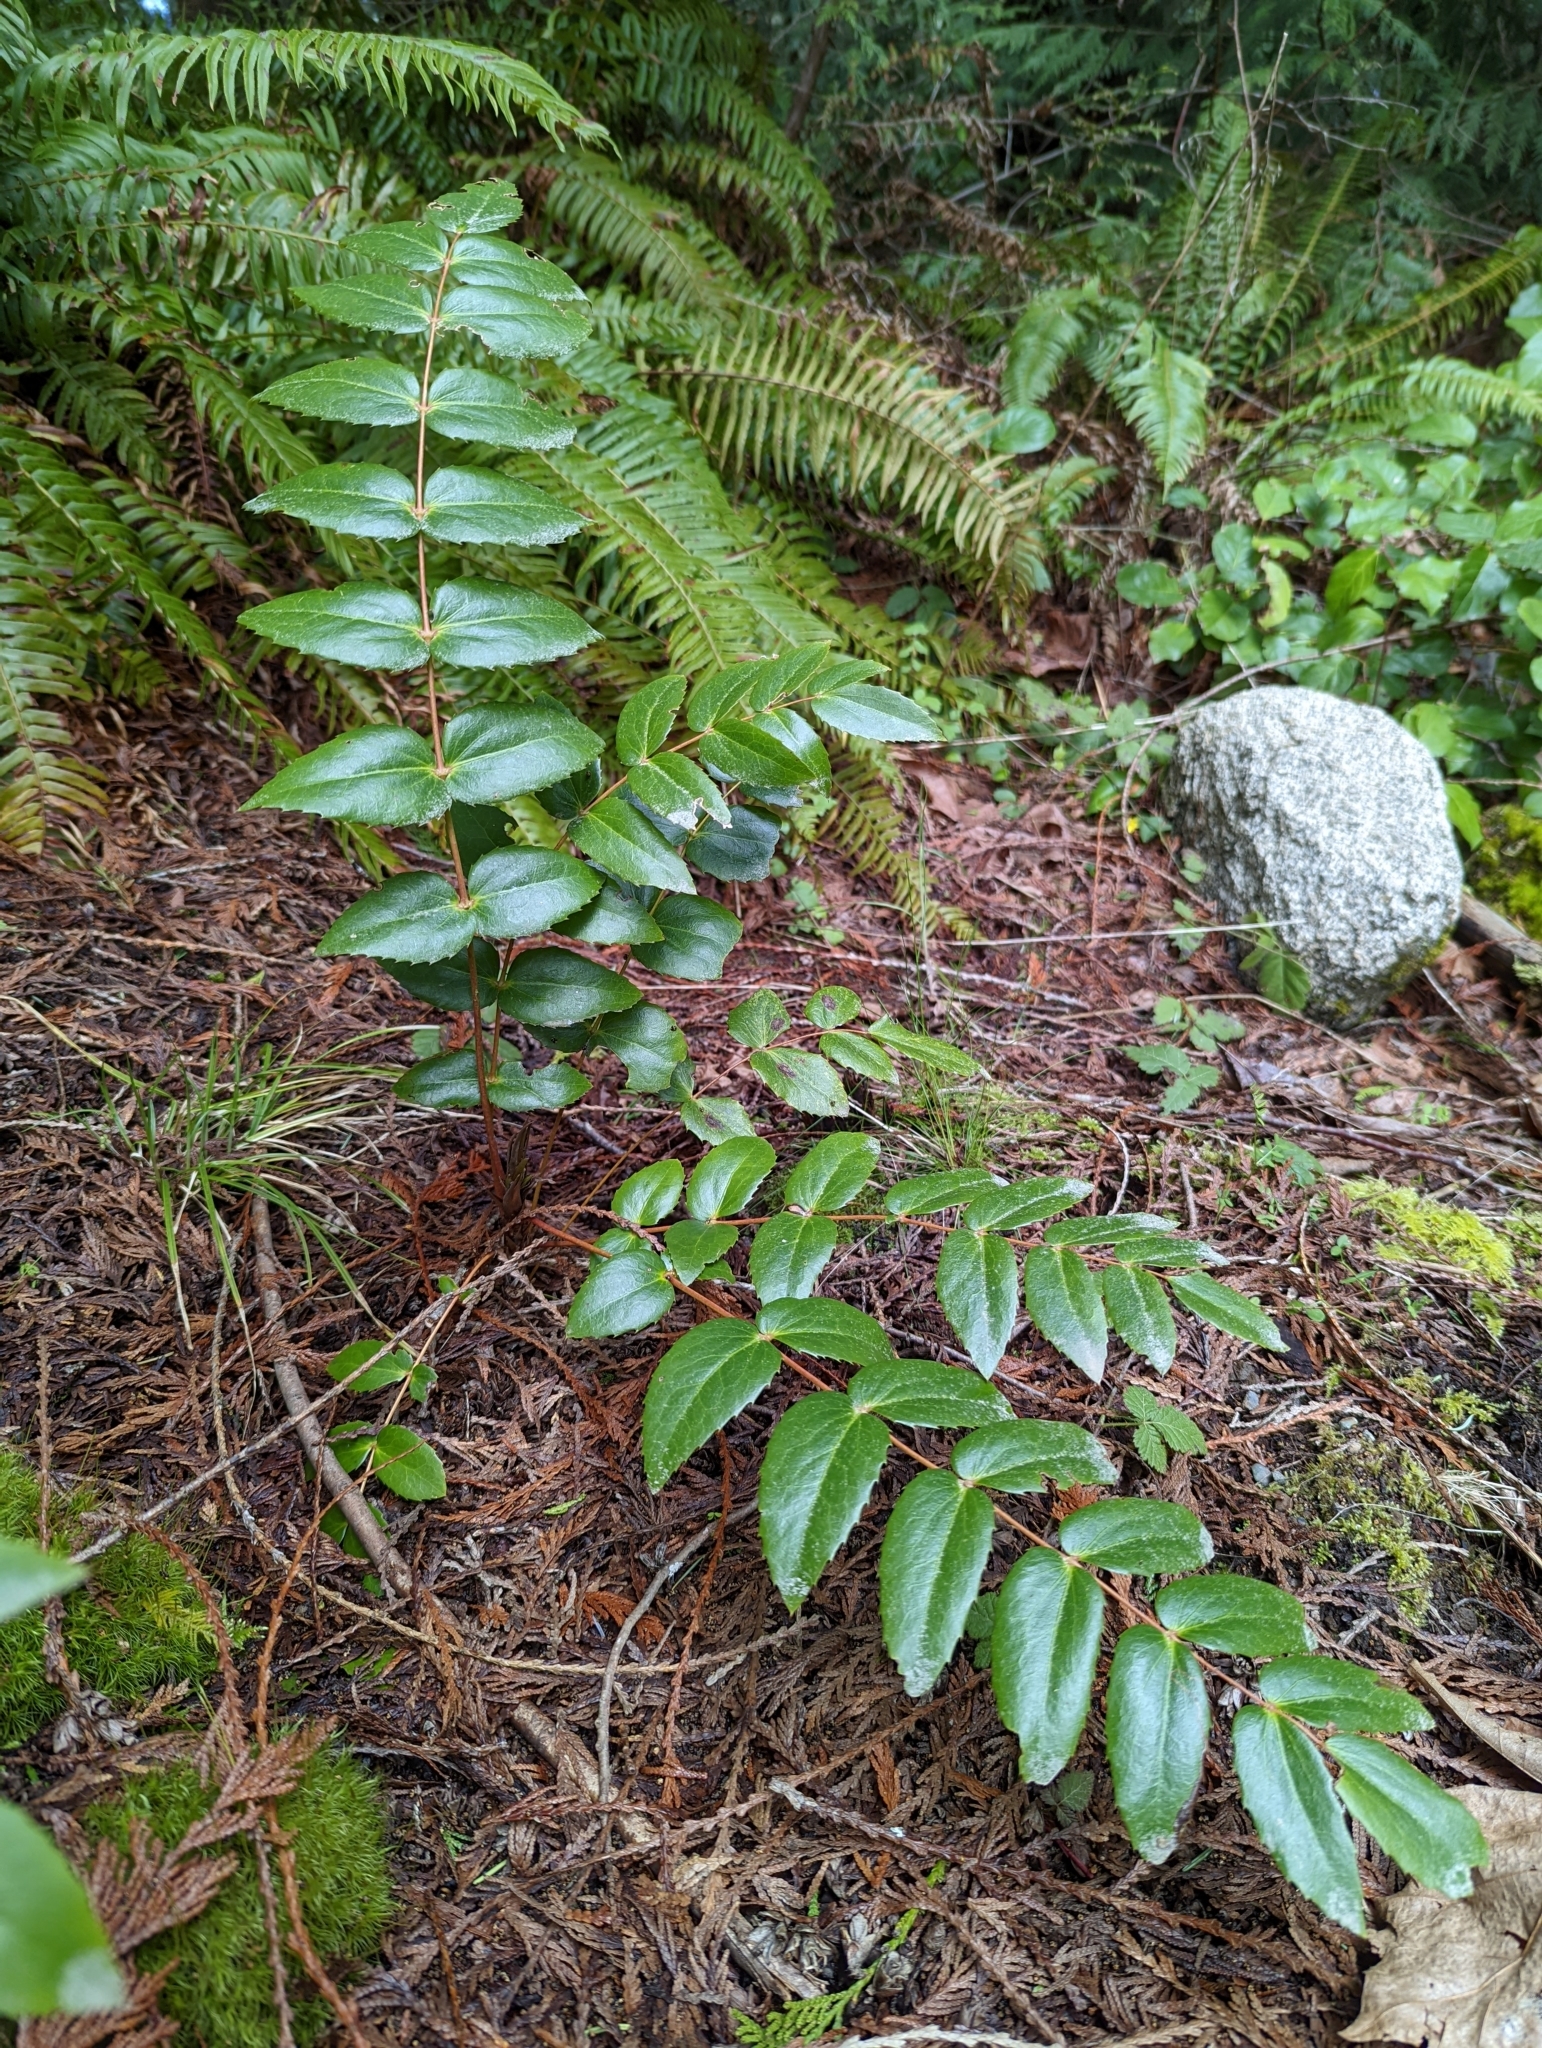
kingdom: Plantae
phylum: Tracheophyta
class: Magnoliopsida
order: Ranunculales
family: Berberidaceae
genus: Mahonia
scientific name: Mahonia nervosa
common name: Cascade oregon-grape
